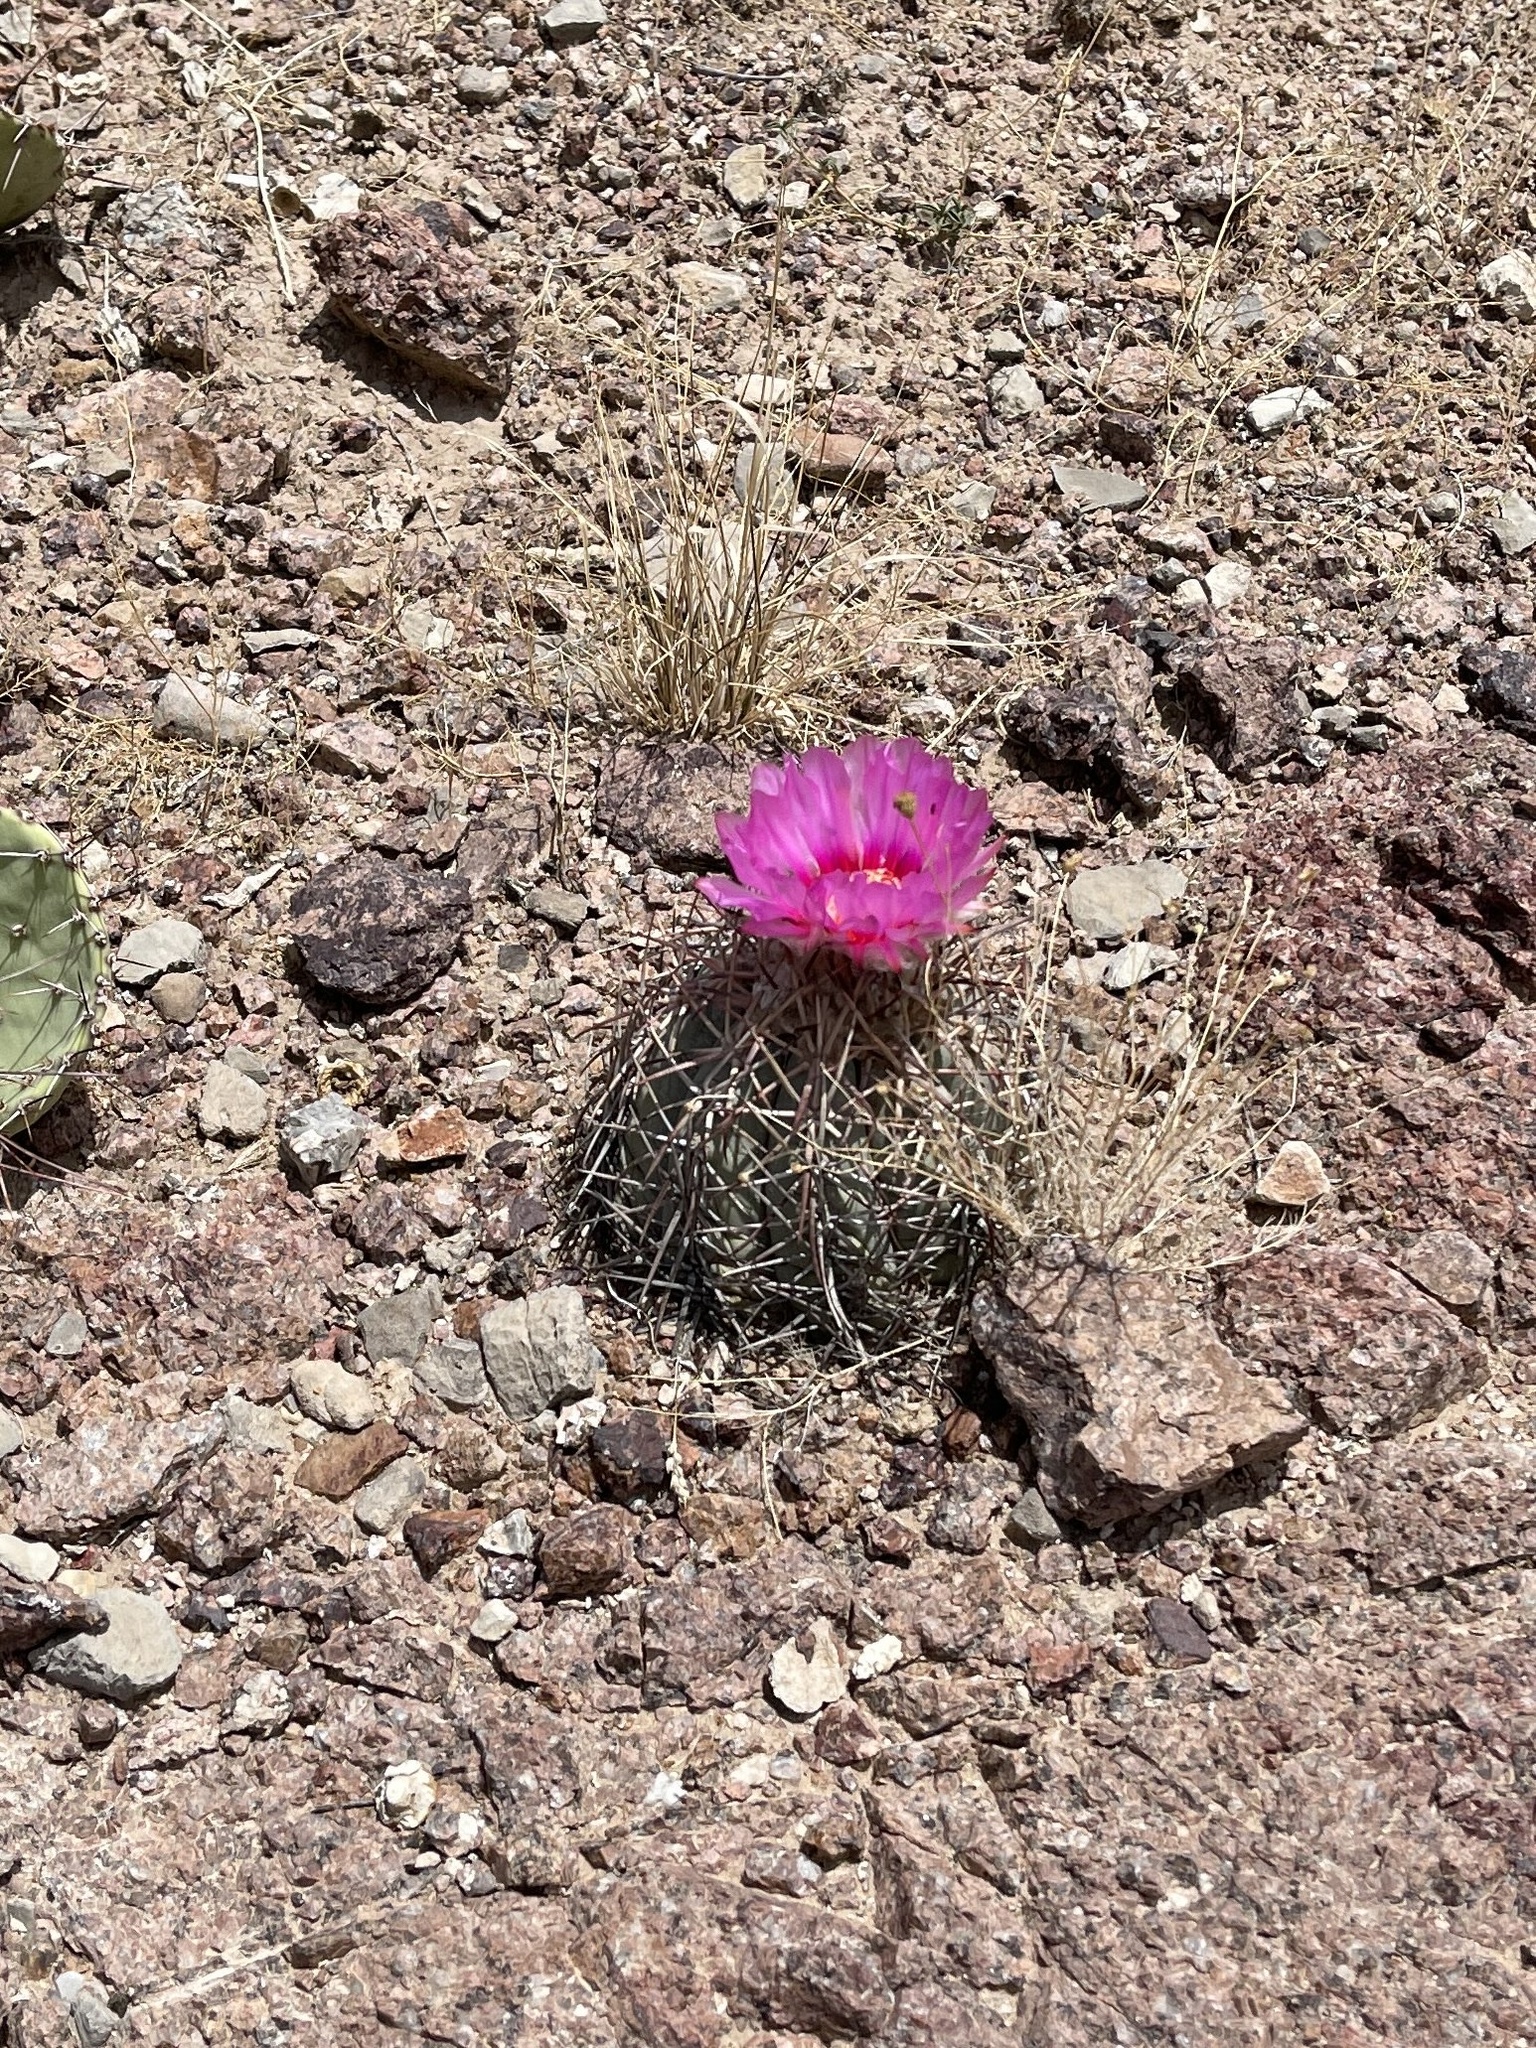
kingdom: Plantae
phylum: Tracheophyta
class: Magnoliopsida
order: Caryophyllales
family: Cactaceae
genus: Echinocactus
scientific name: Echinocactus horizonthalonius
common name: Devilshead
